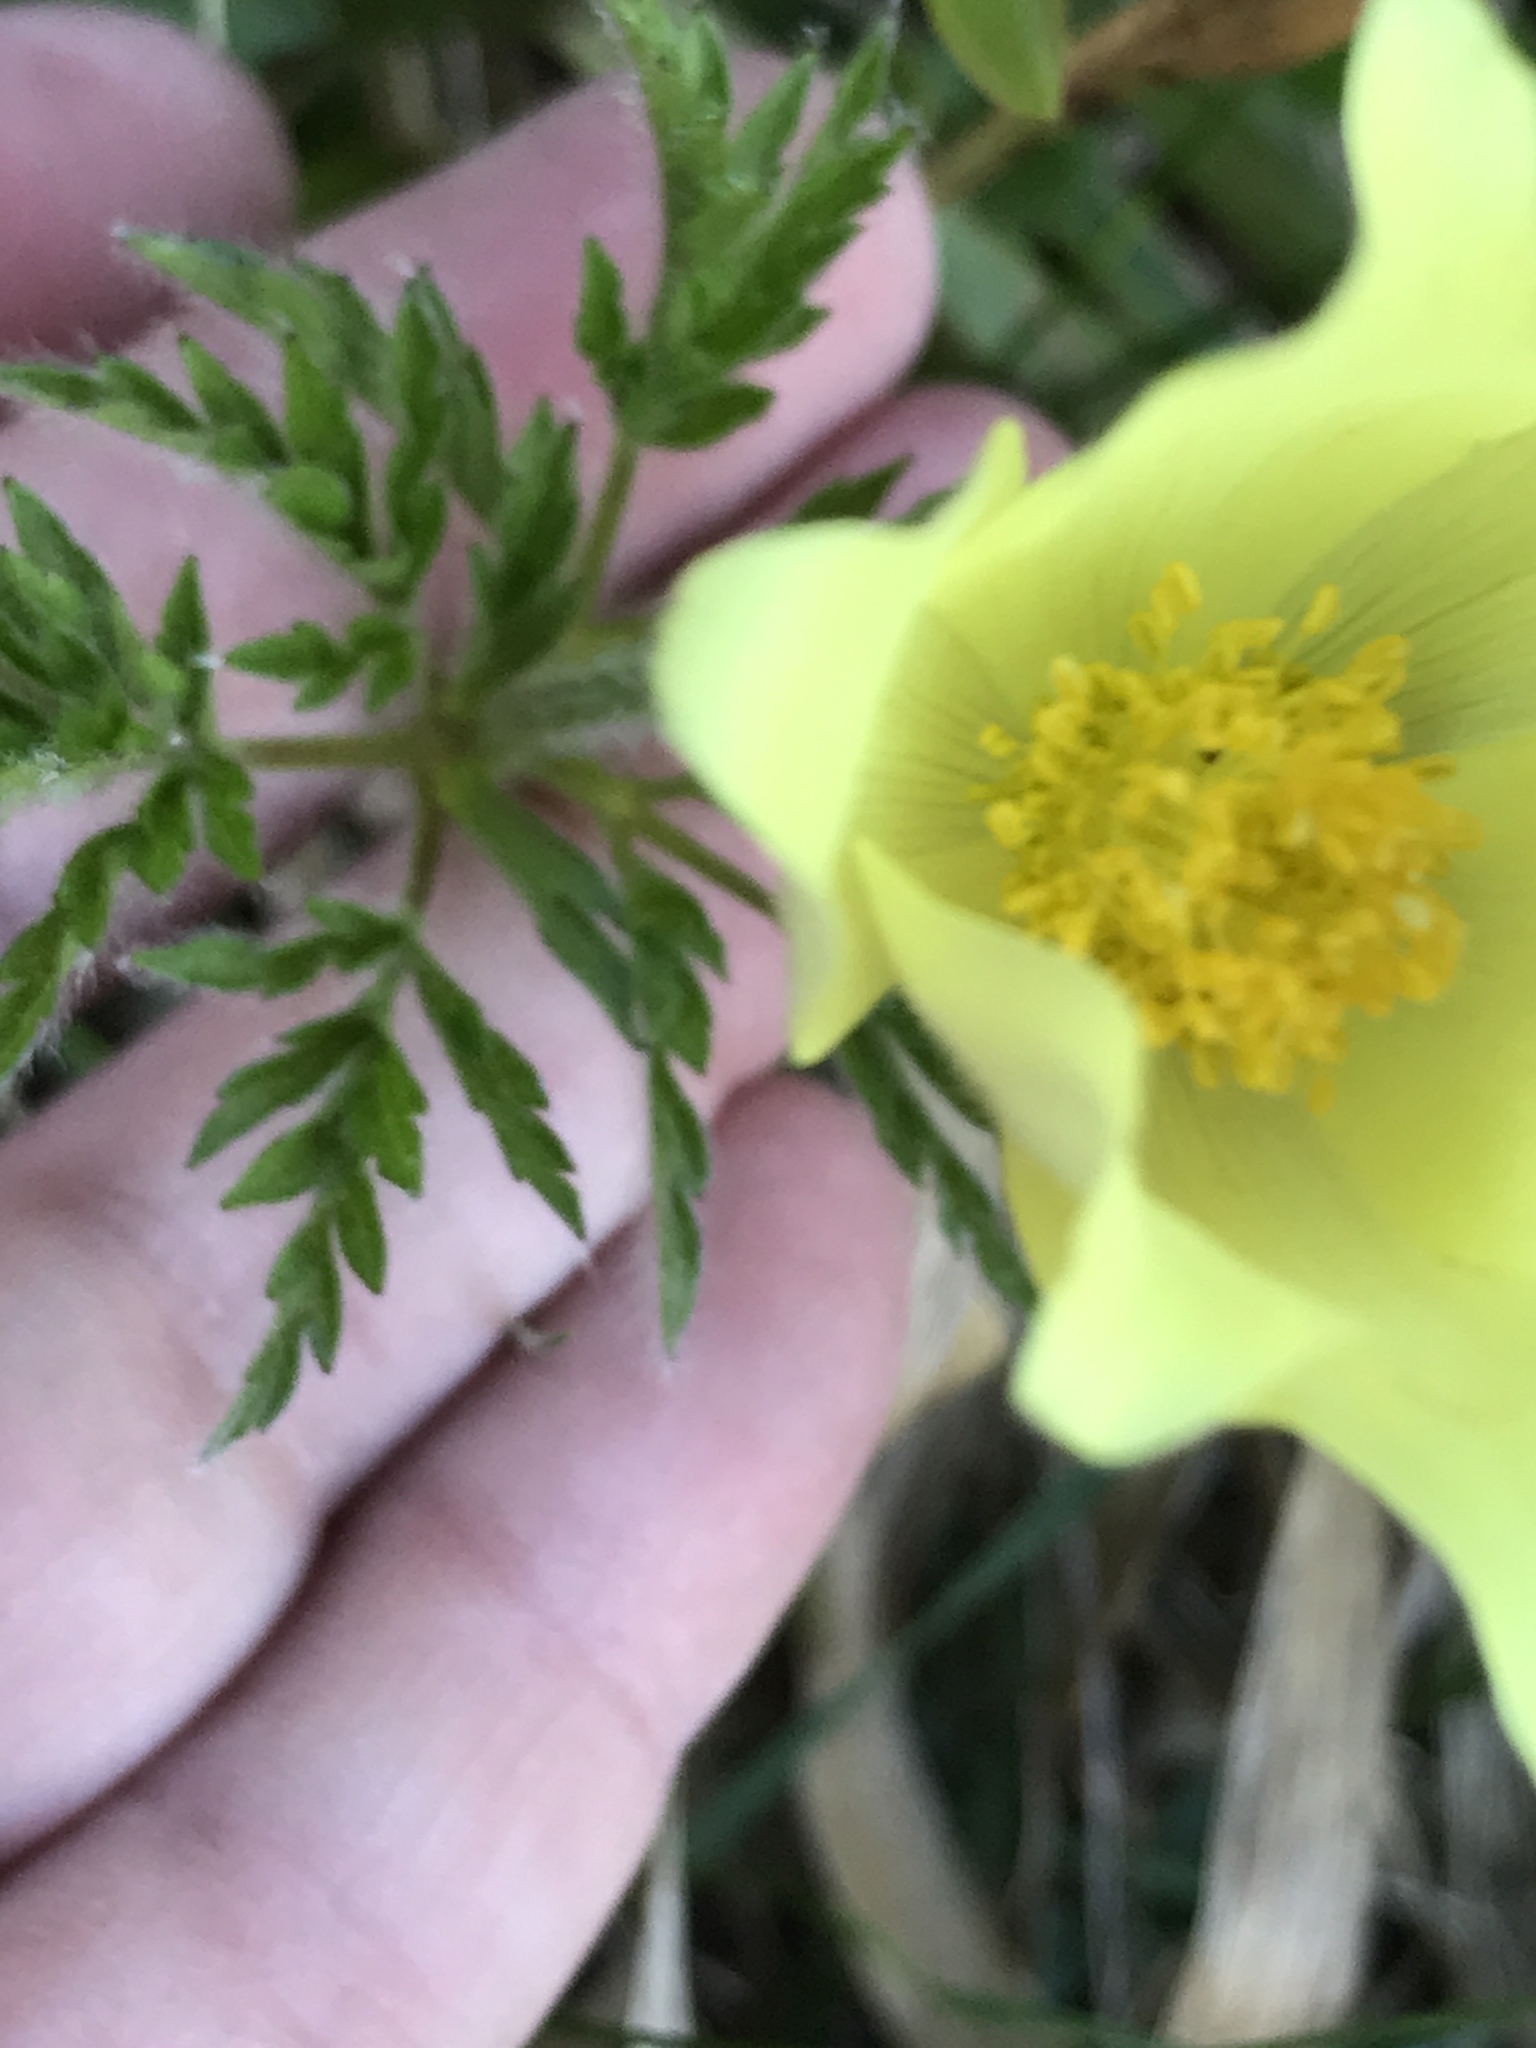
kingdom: Plantae
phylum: Tracheophyta
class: Magnoliopsida
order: Ranunculales
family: Ranunculaceae
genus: Pulsatilla
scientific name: Pulsatilla alpina
